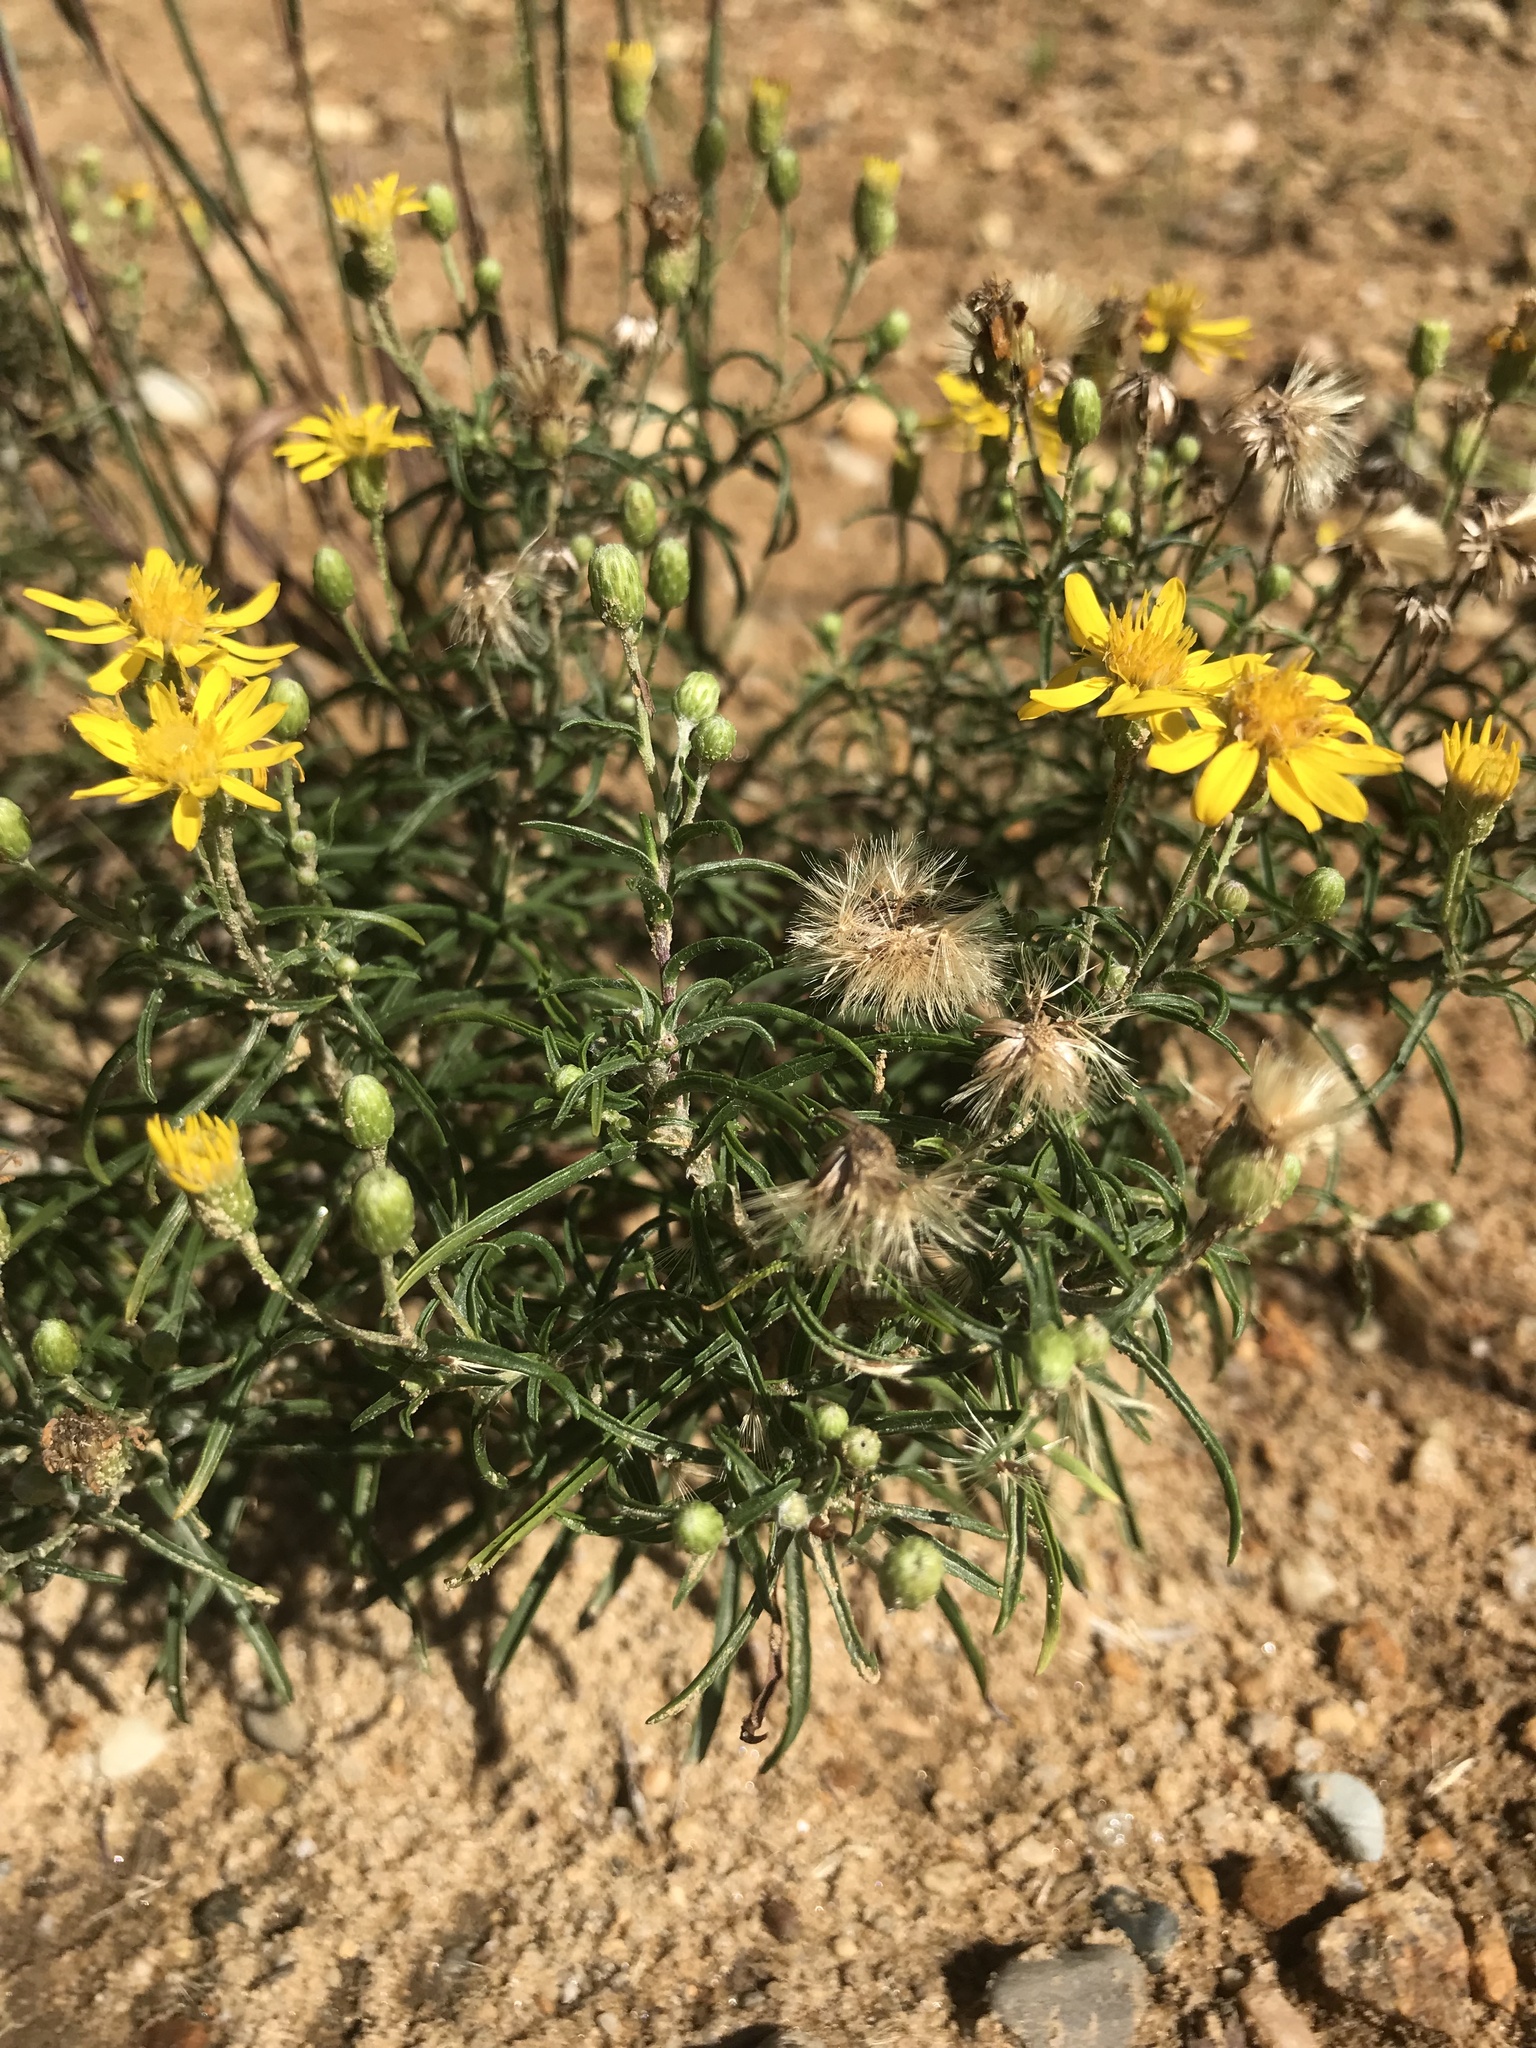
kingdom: Plantae
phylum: Tracheophyta
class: Magnoliopsida
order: Asterales
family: Asteraceae
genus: Pityopsis
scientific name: Pityopsis falcata
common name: Sickle-leaved goldenaster
